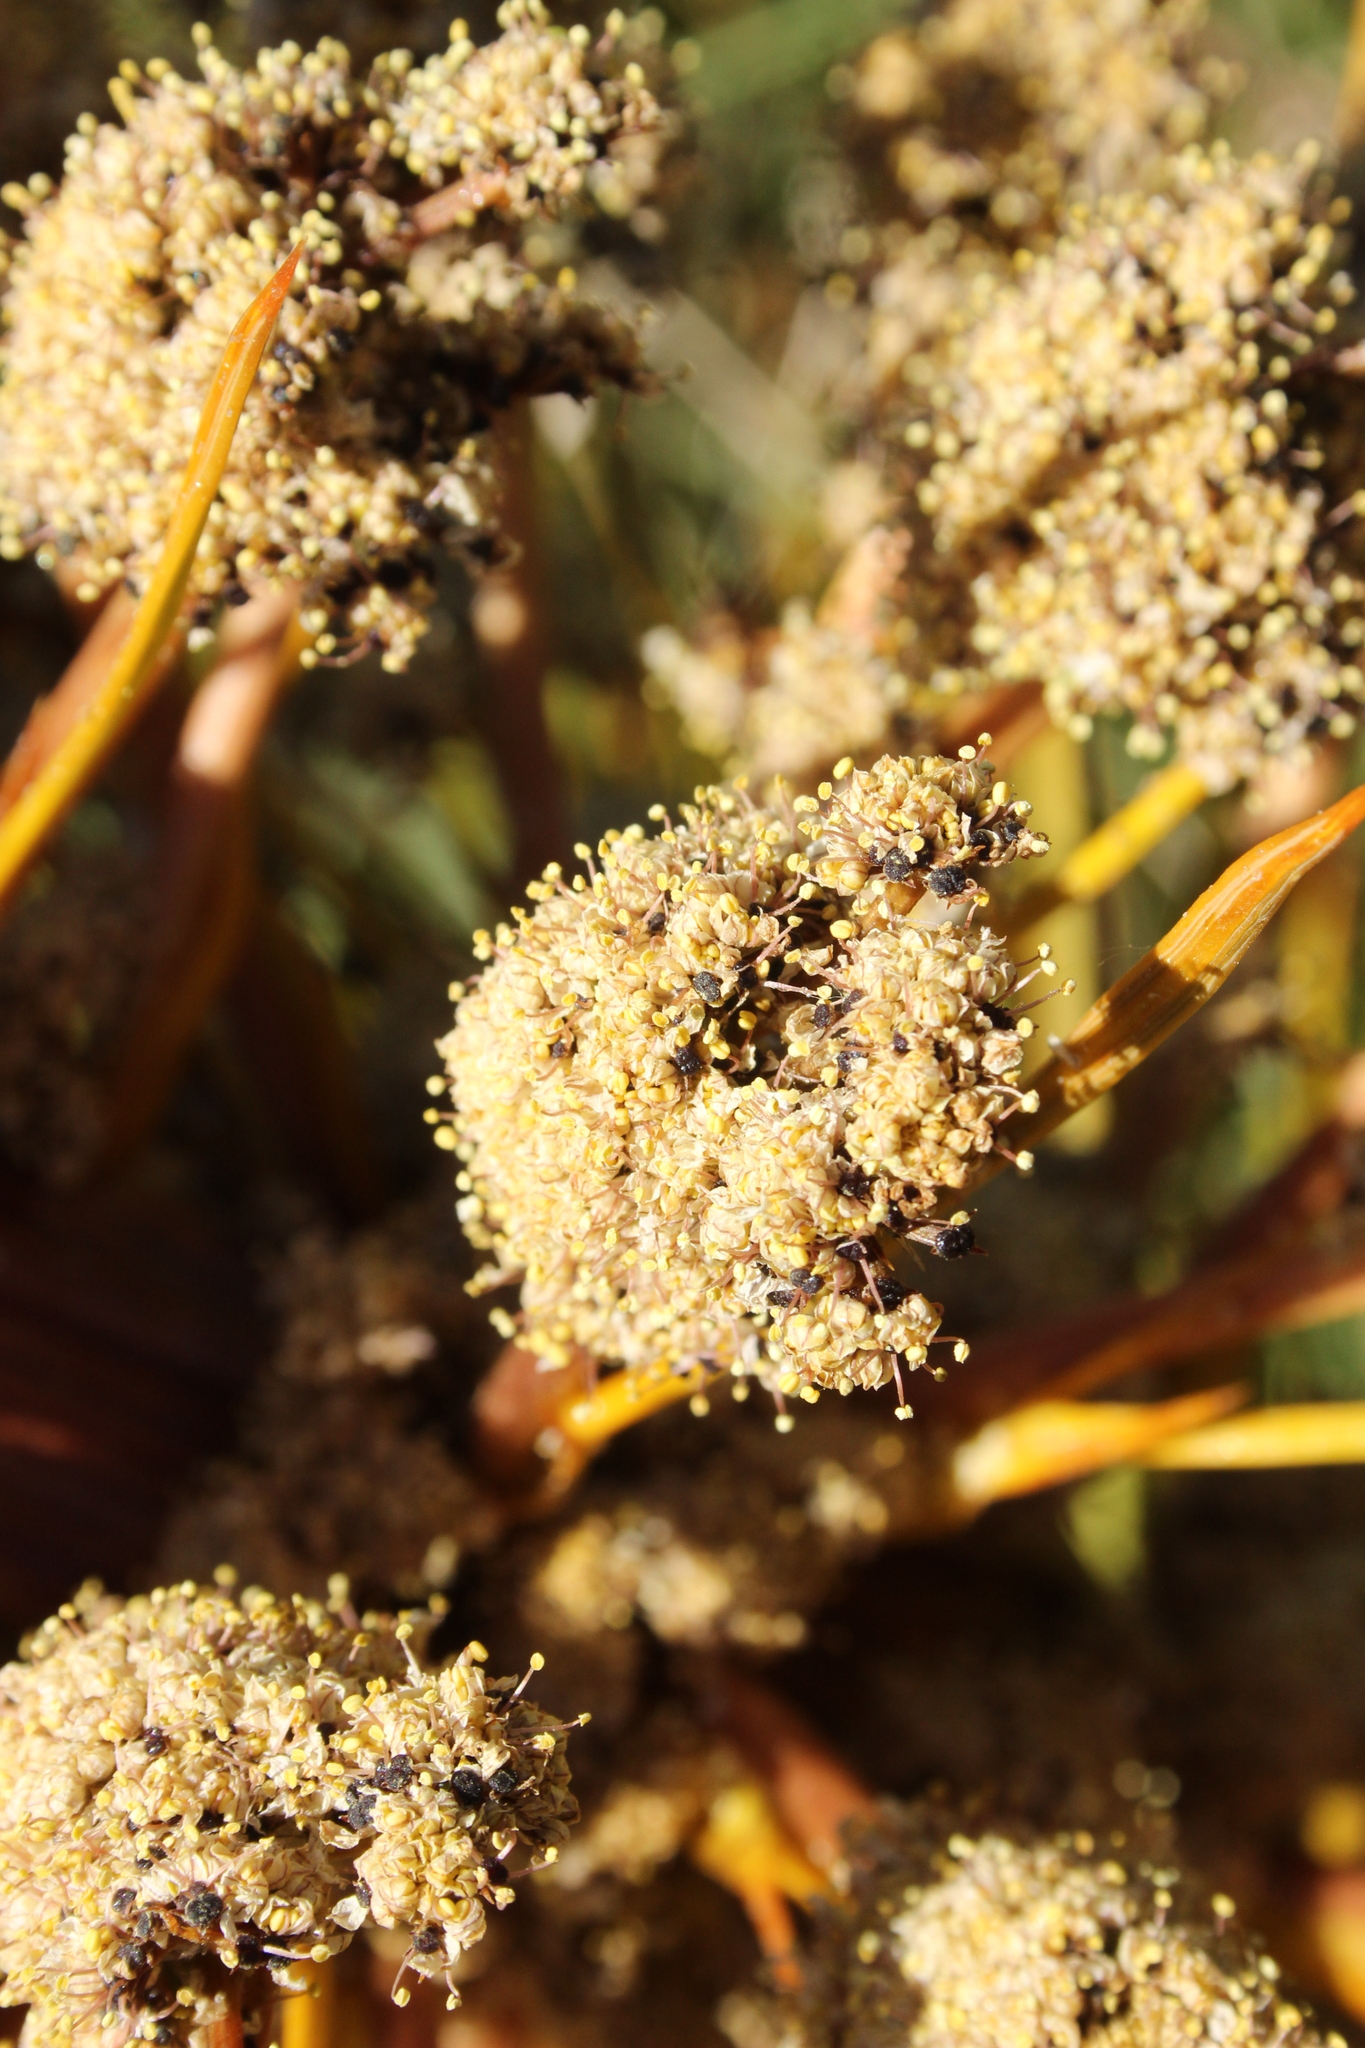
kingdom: Plantae
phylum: Tracheophyta
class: Magnoliopsida
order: Apiales
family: Apiaceae
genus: Aciphylla
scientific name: Aciphylla aurea
